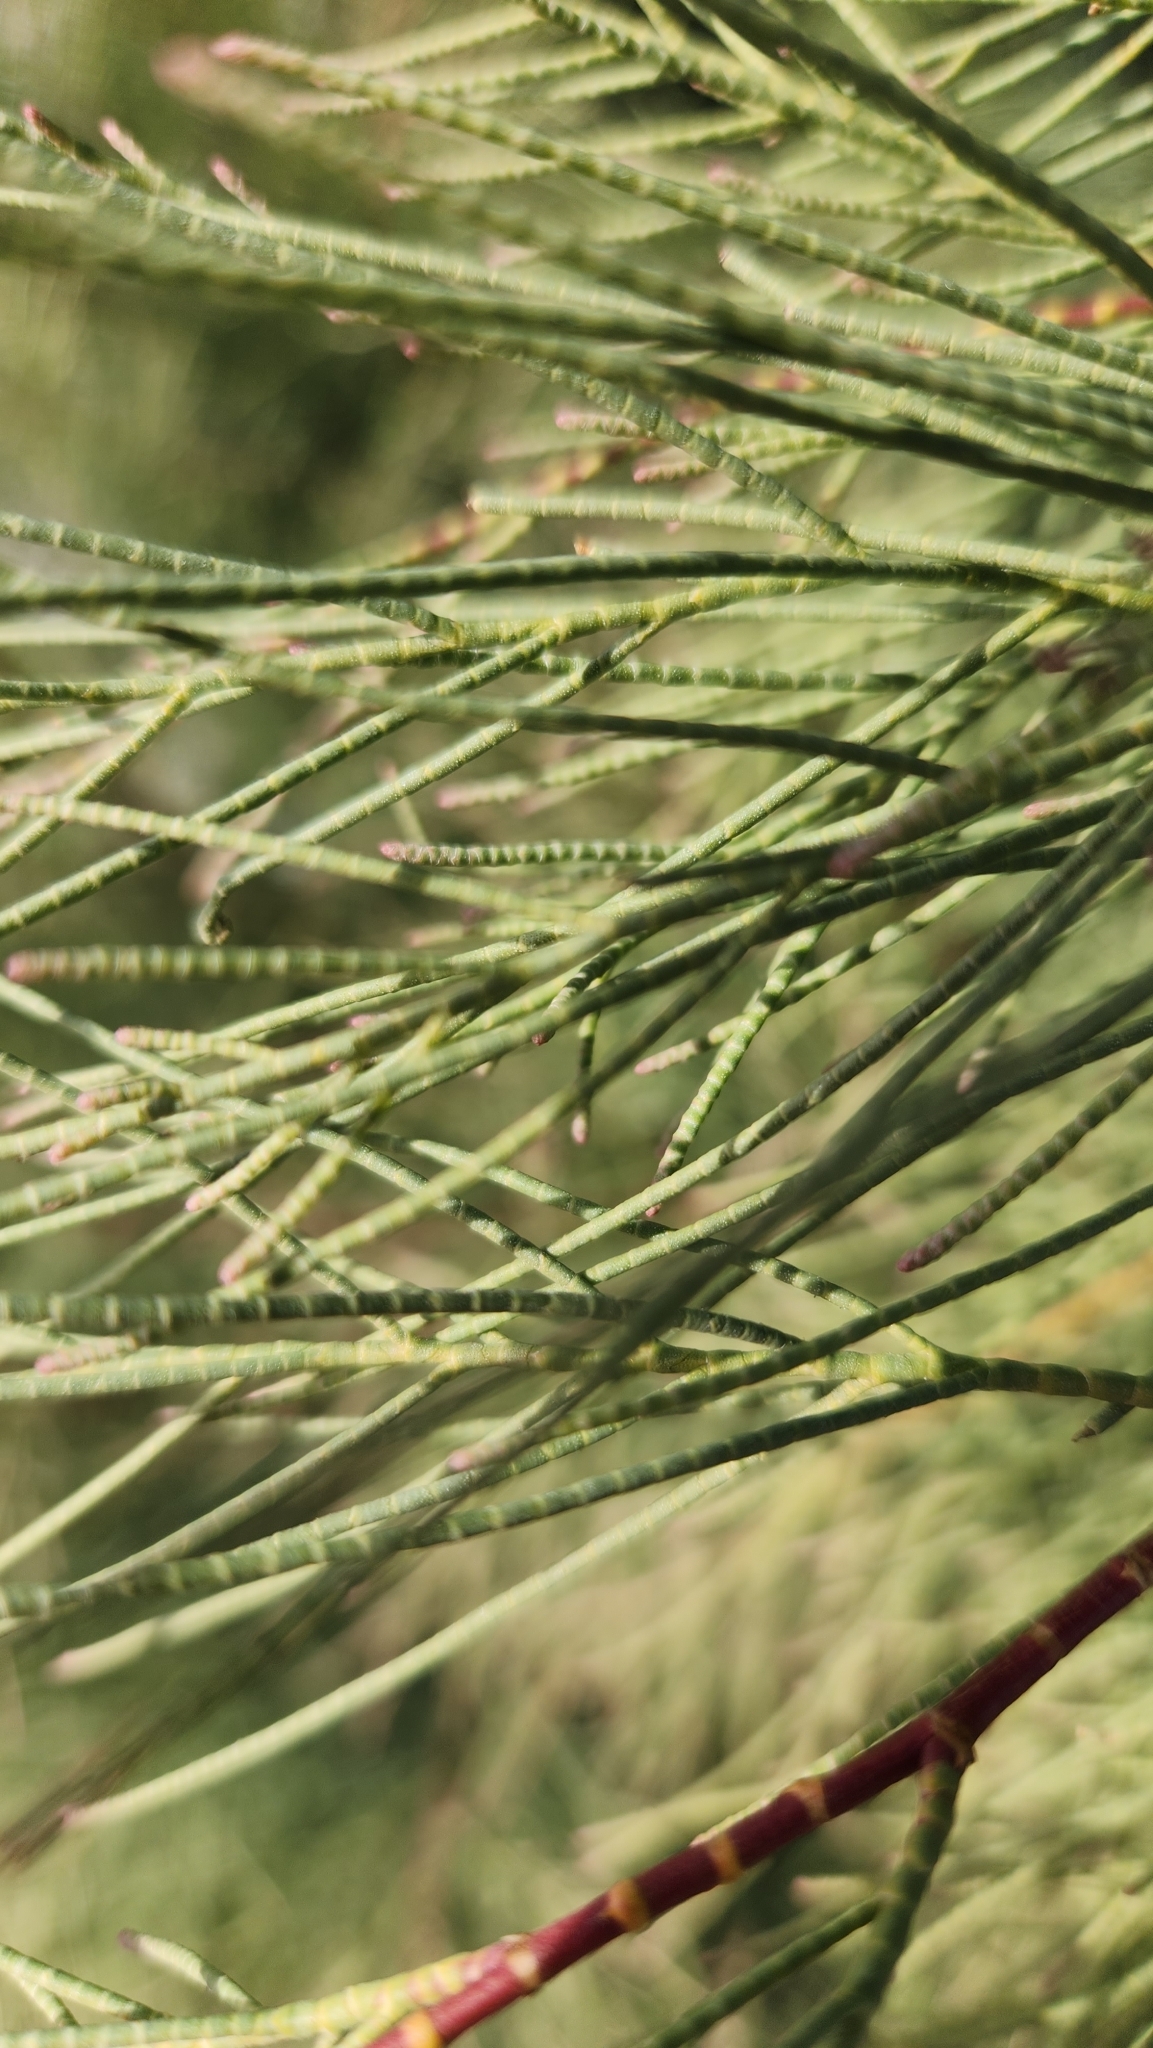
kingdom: Plantae
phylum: Tracheophyta
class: Magnoliopsida
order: Caryophyllales
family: Tamaricaceae
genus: Tamarix
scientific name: Tamarix aphylla
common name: Athel tamarisk
